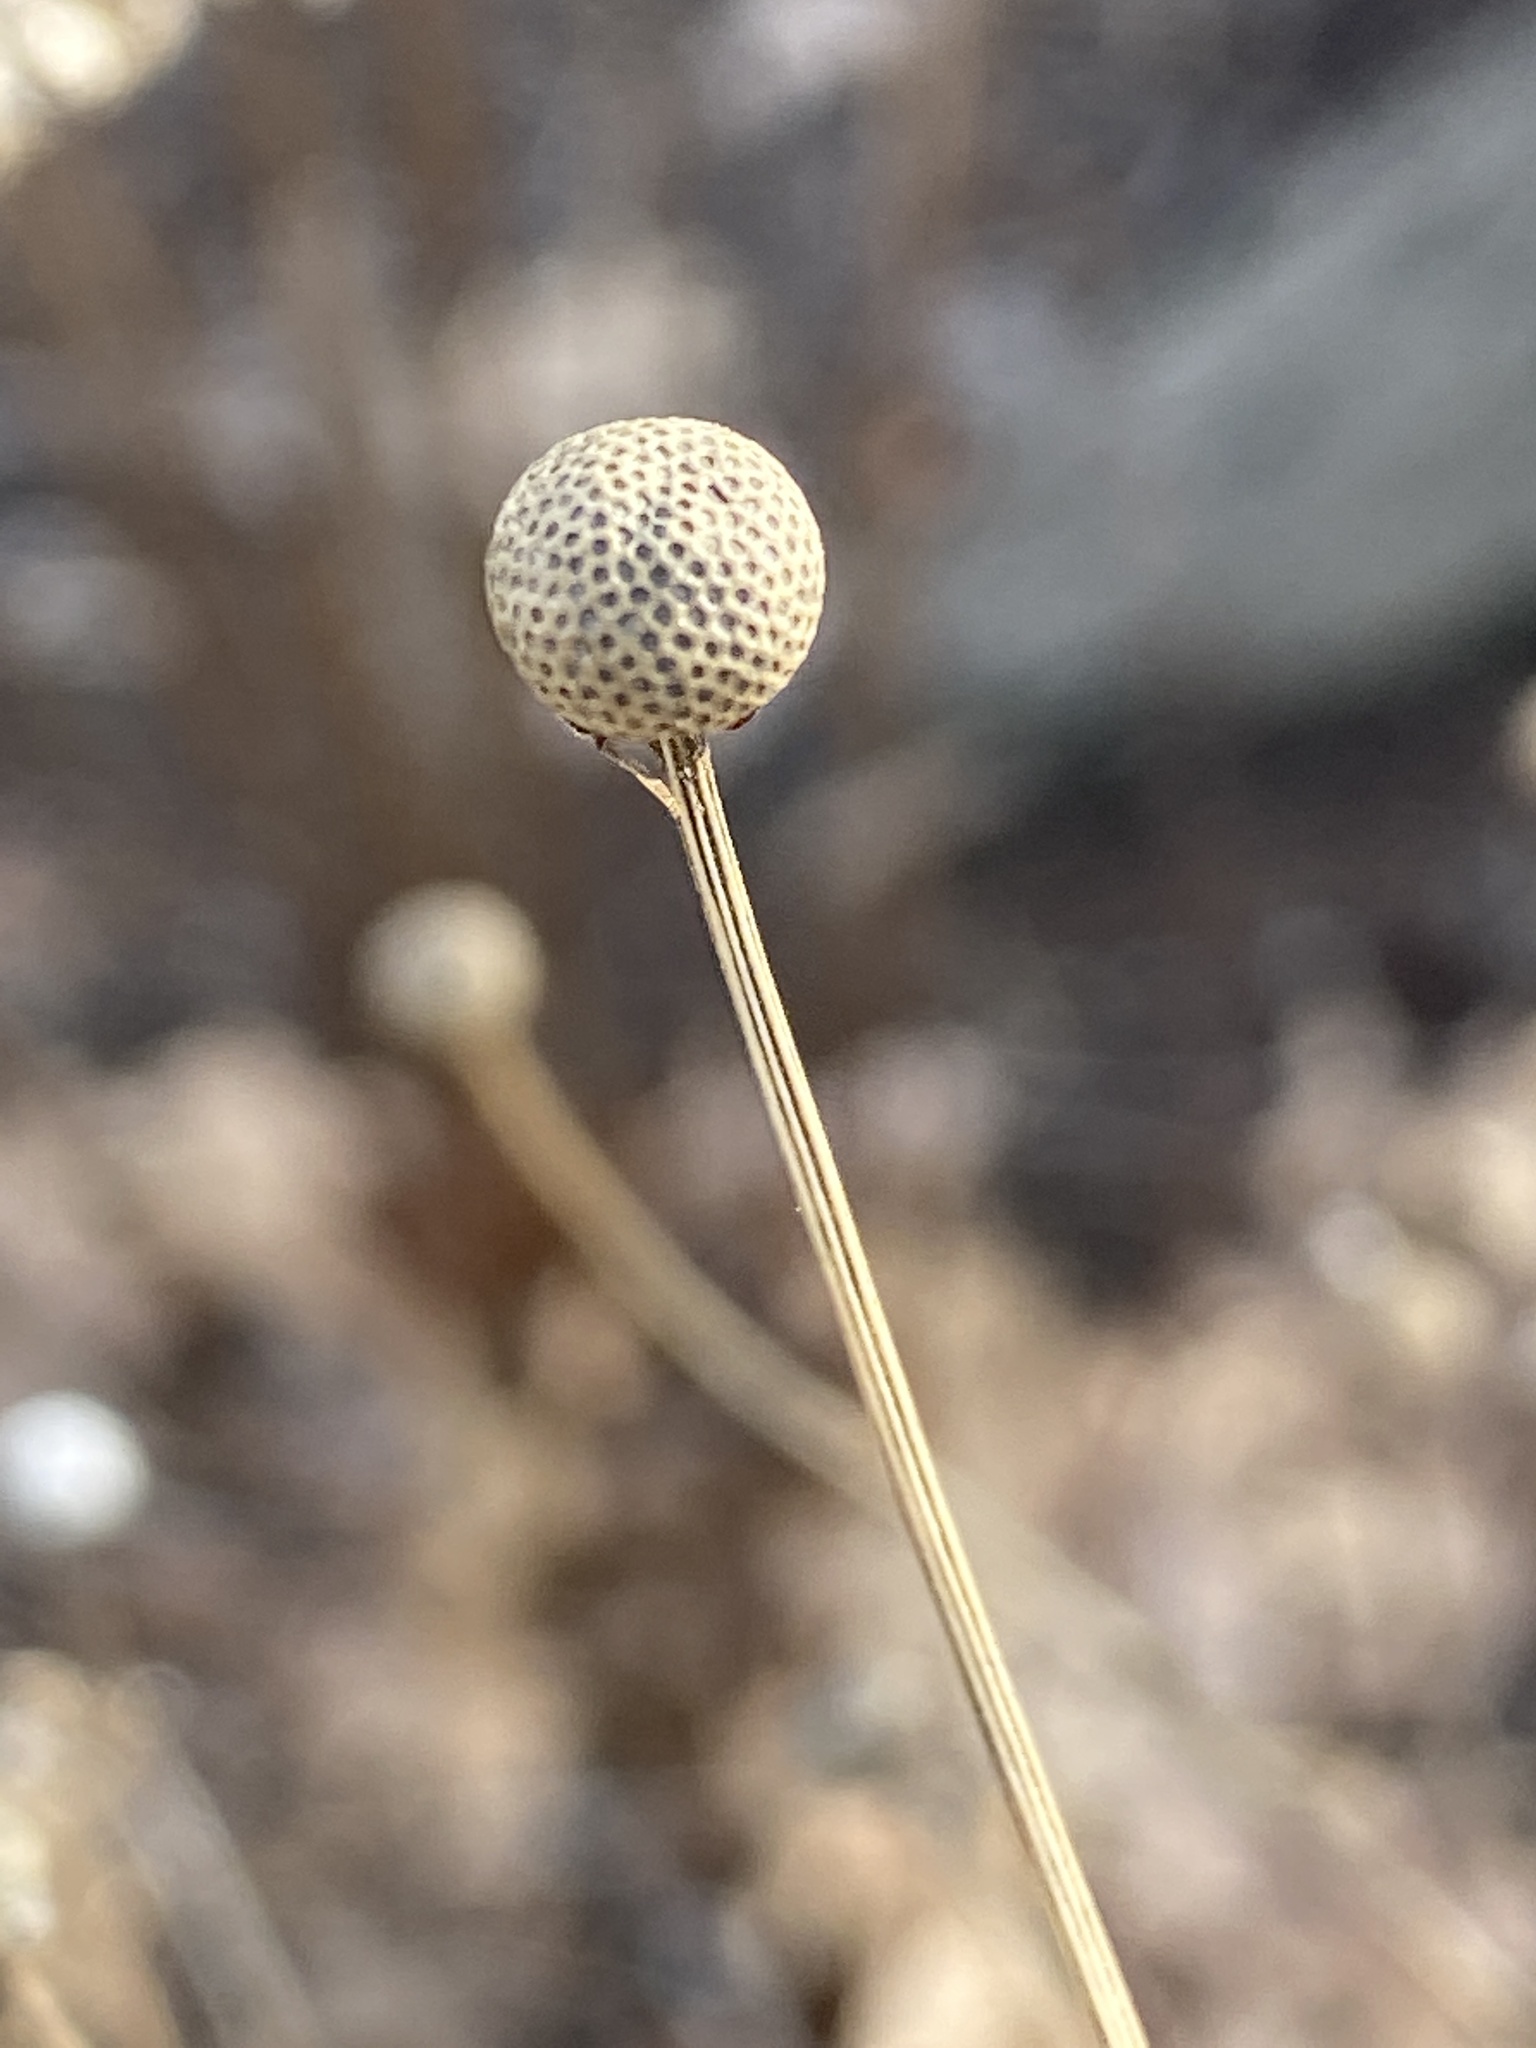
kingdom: Plantae
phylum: Tracheophyta
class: Magnoliopsida
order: Asterales
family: Asteraceae
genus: Helenium
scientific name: Helenium autumnale
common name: Sneezeweed
